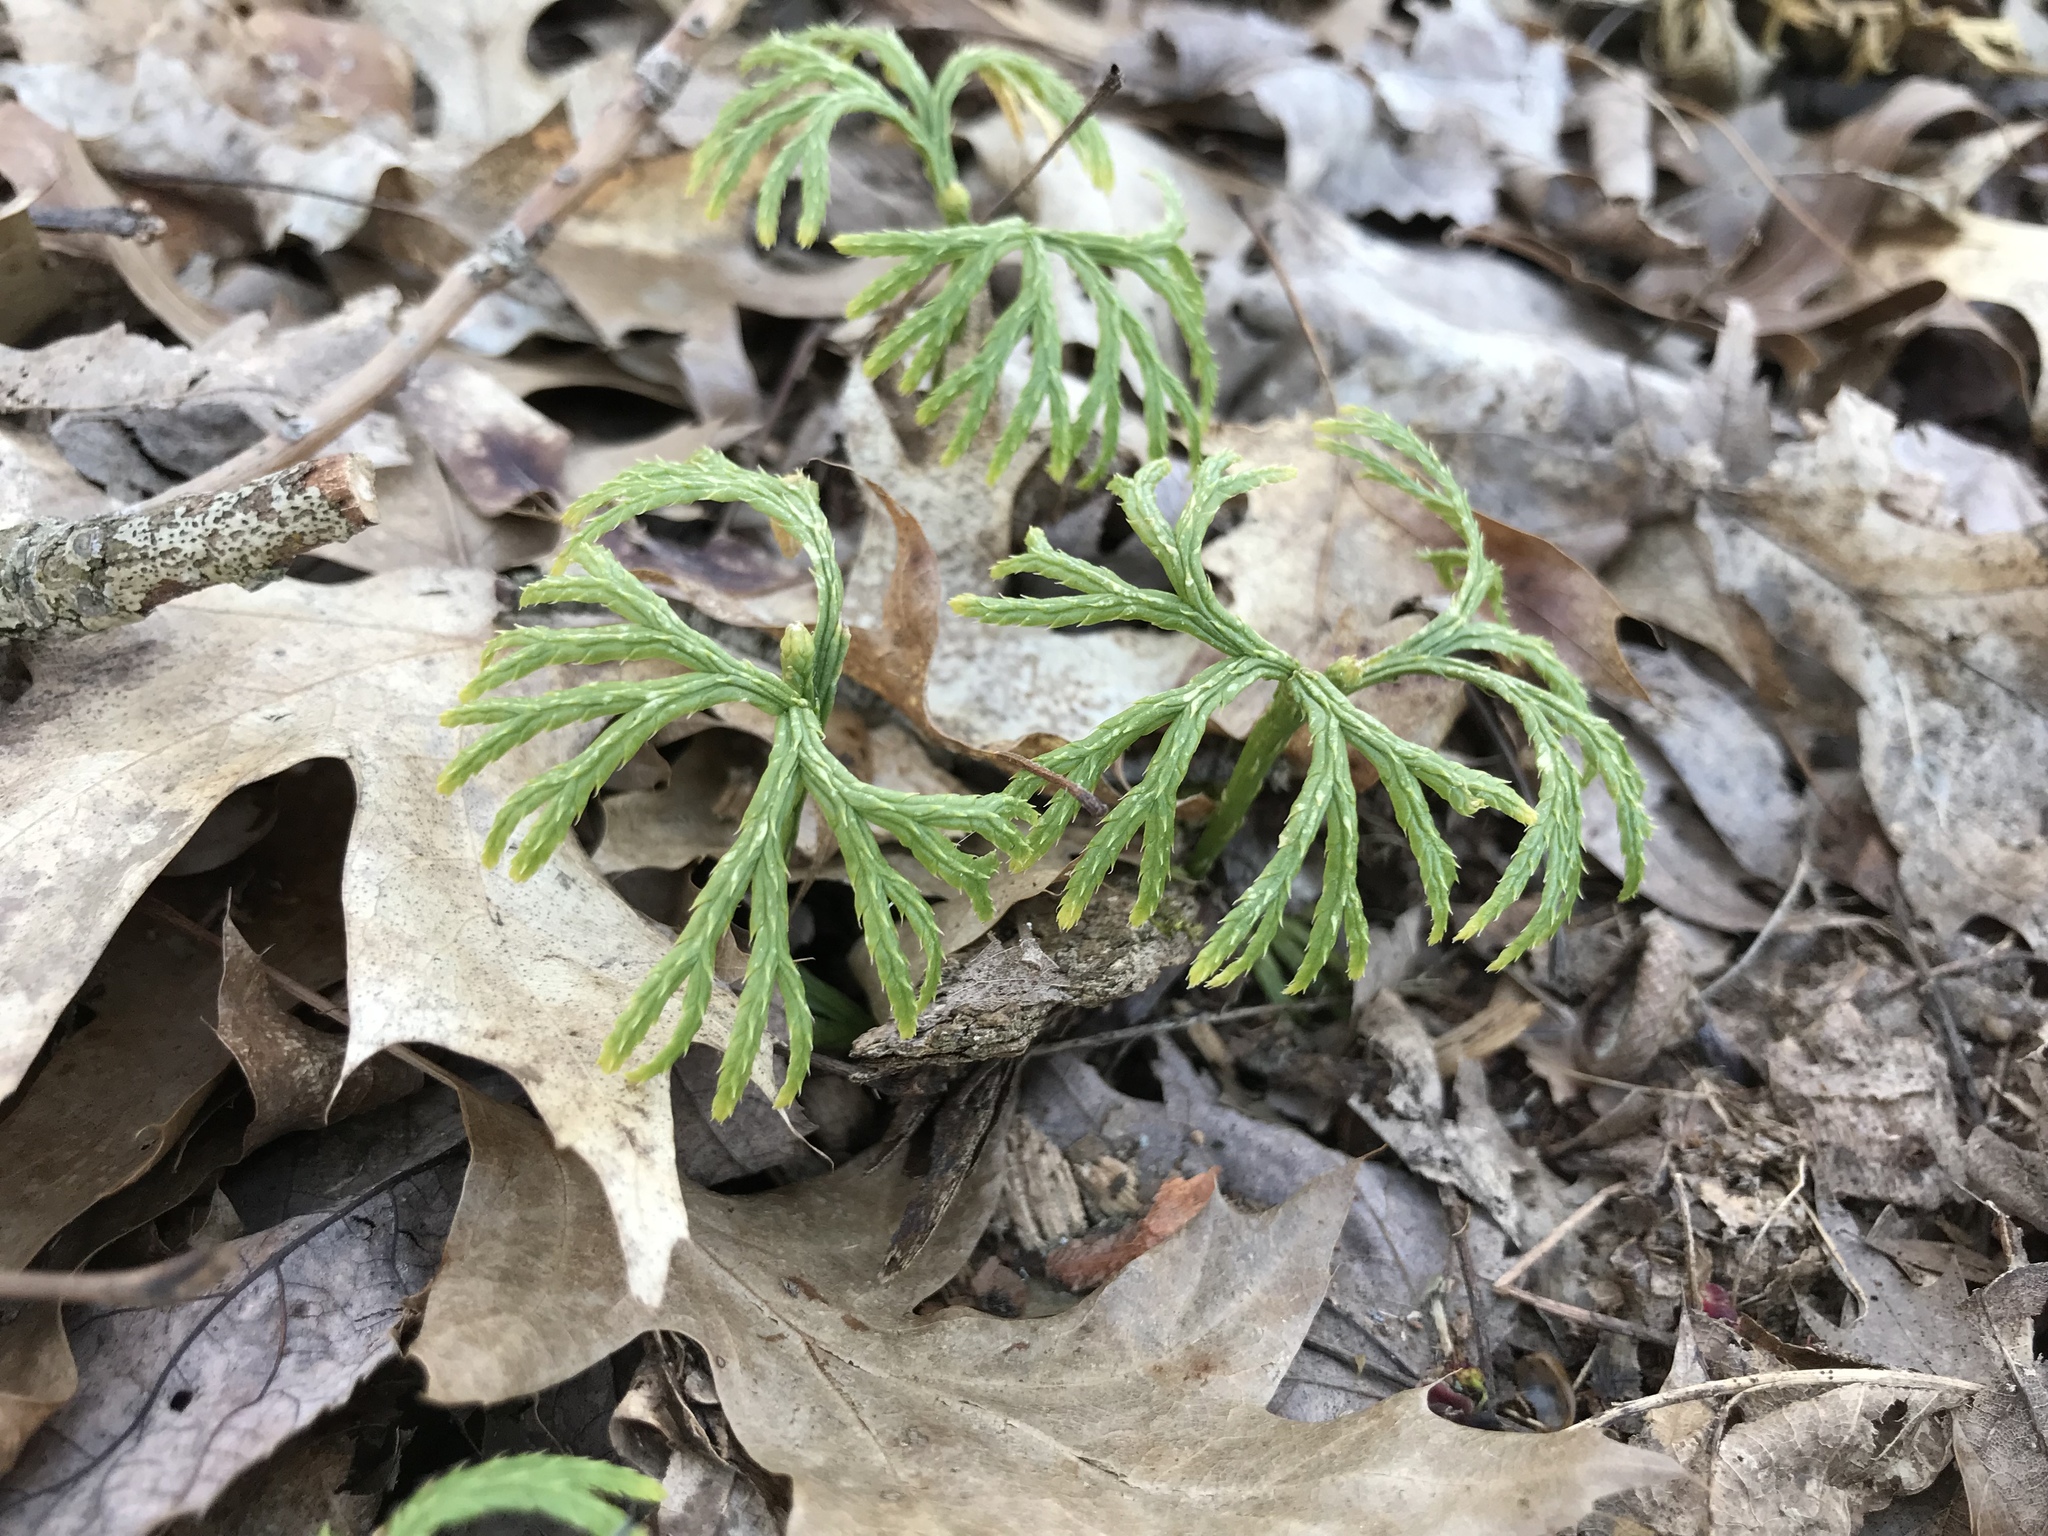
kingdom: Plantae
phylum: Tracheophyta
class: Lycopodiopsida
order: Lycopodiales
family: Lycopodiaceae
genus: Diphasiastrum
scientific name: Diphasiastrum digitatum
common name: Southern running-pine
